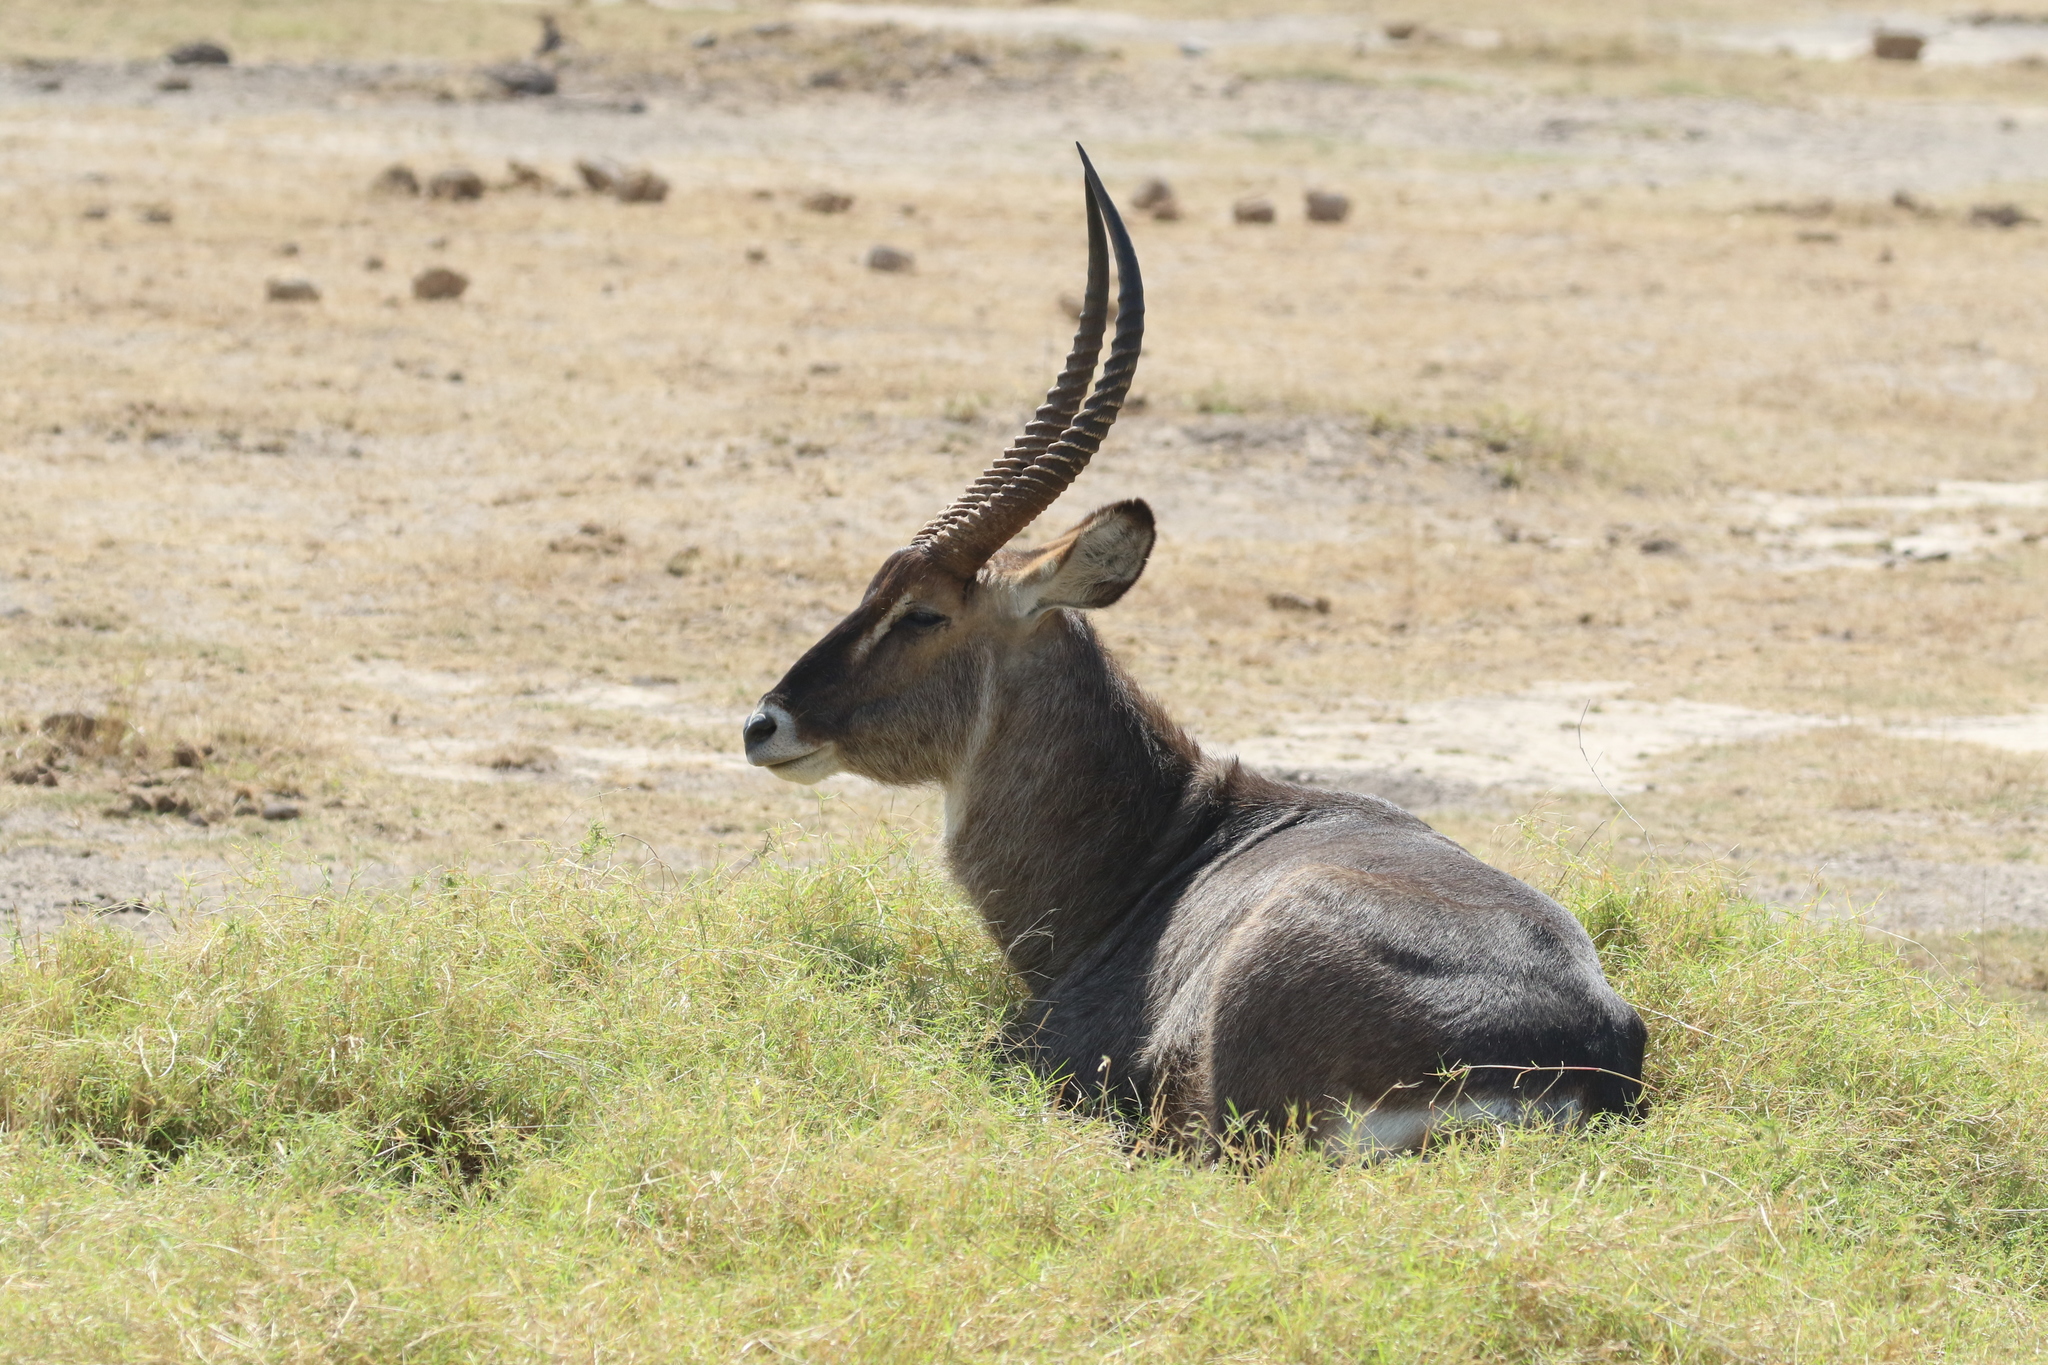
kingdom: Animalia
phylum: Chordata
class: Mammalia
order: Artiodactyla
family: Bovidae
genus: Kobus
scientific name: Kobus ellipsiprymnus
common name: Waterbuck
